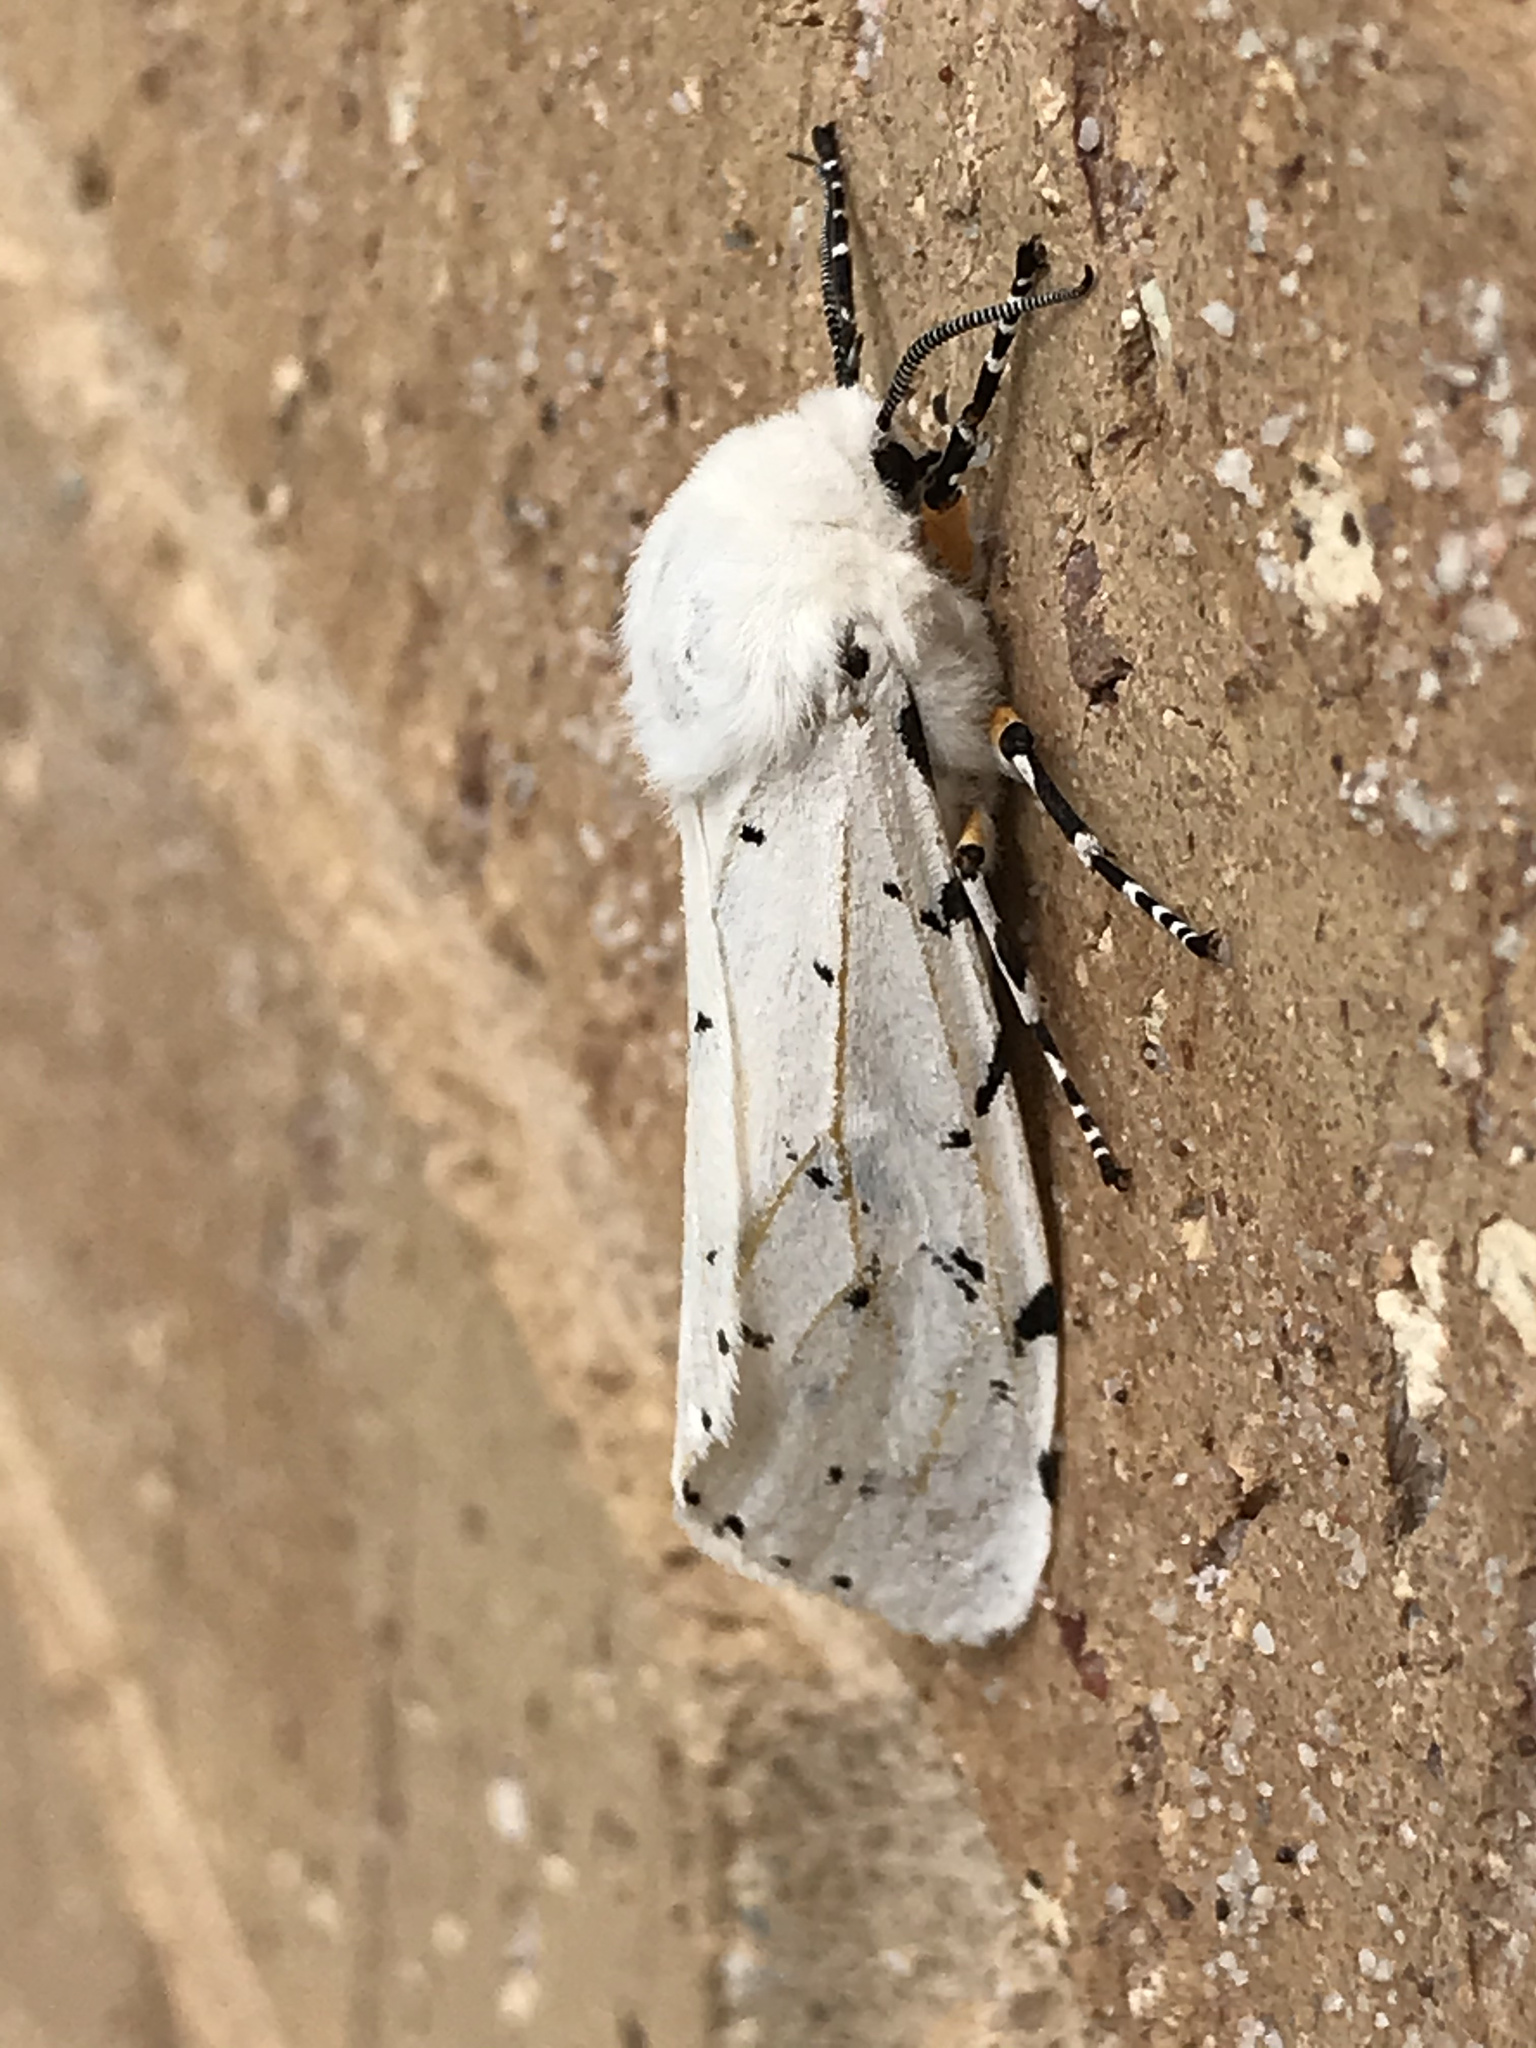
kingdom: Animalia
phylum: Arthropoda
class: Insecta
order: Lepidoptera
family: Erebidae
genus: Estigmene
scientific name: Estigmene acrea
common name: Salt marsh moth
